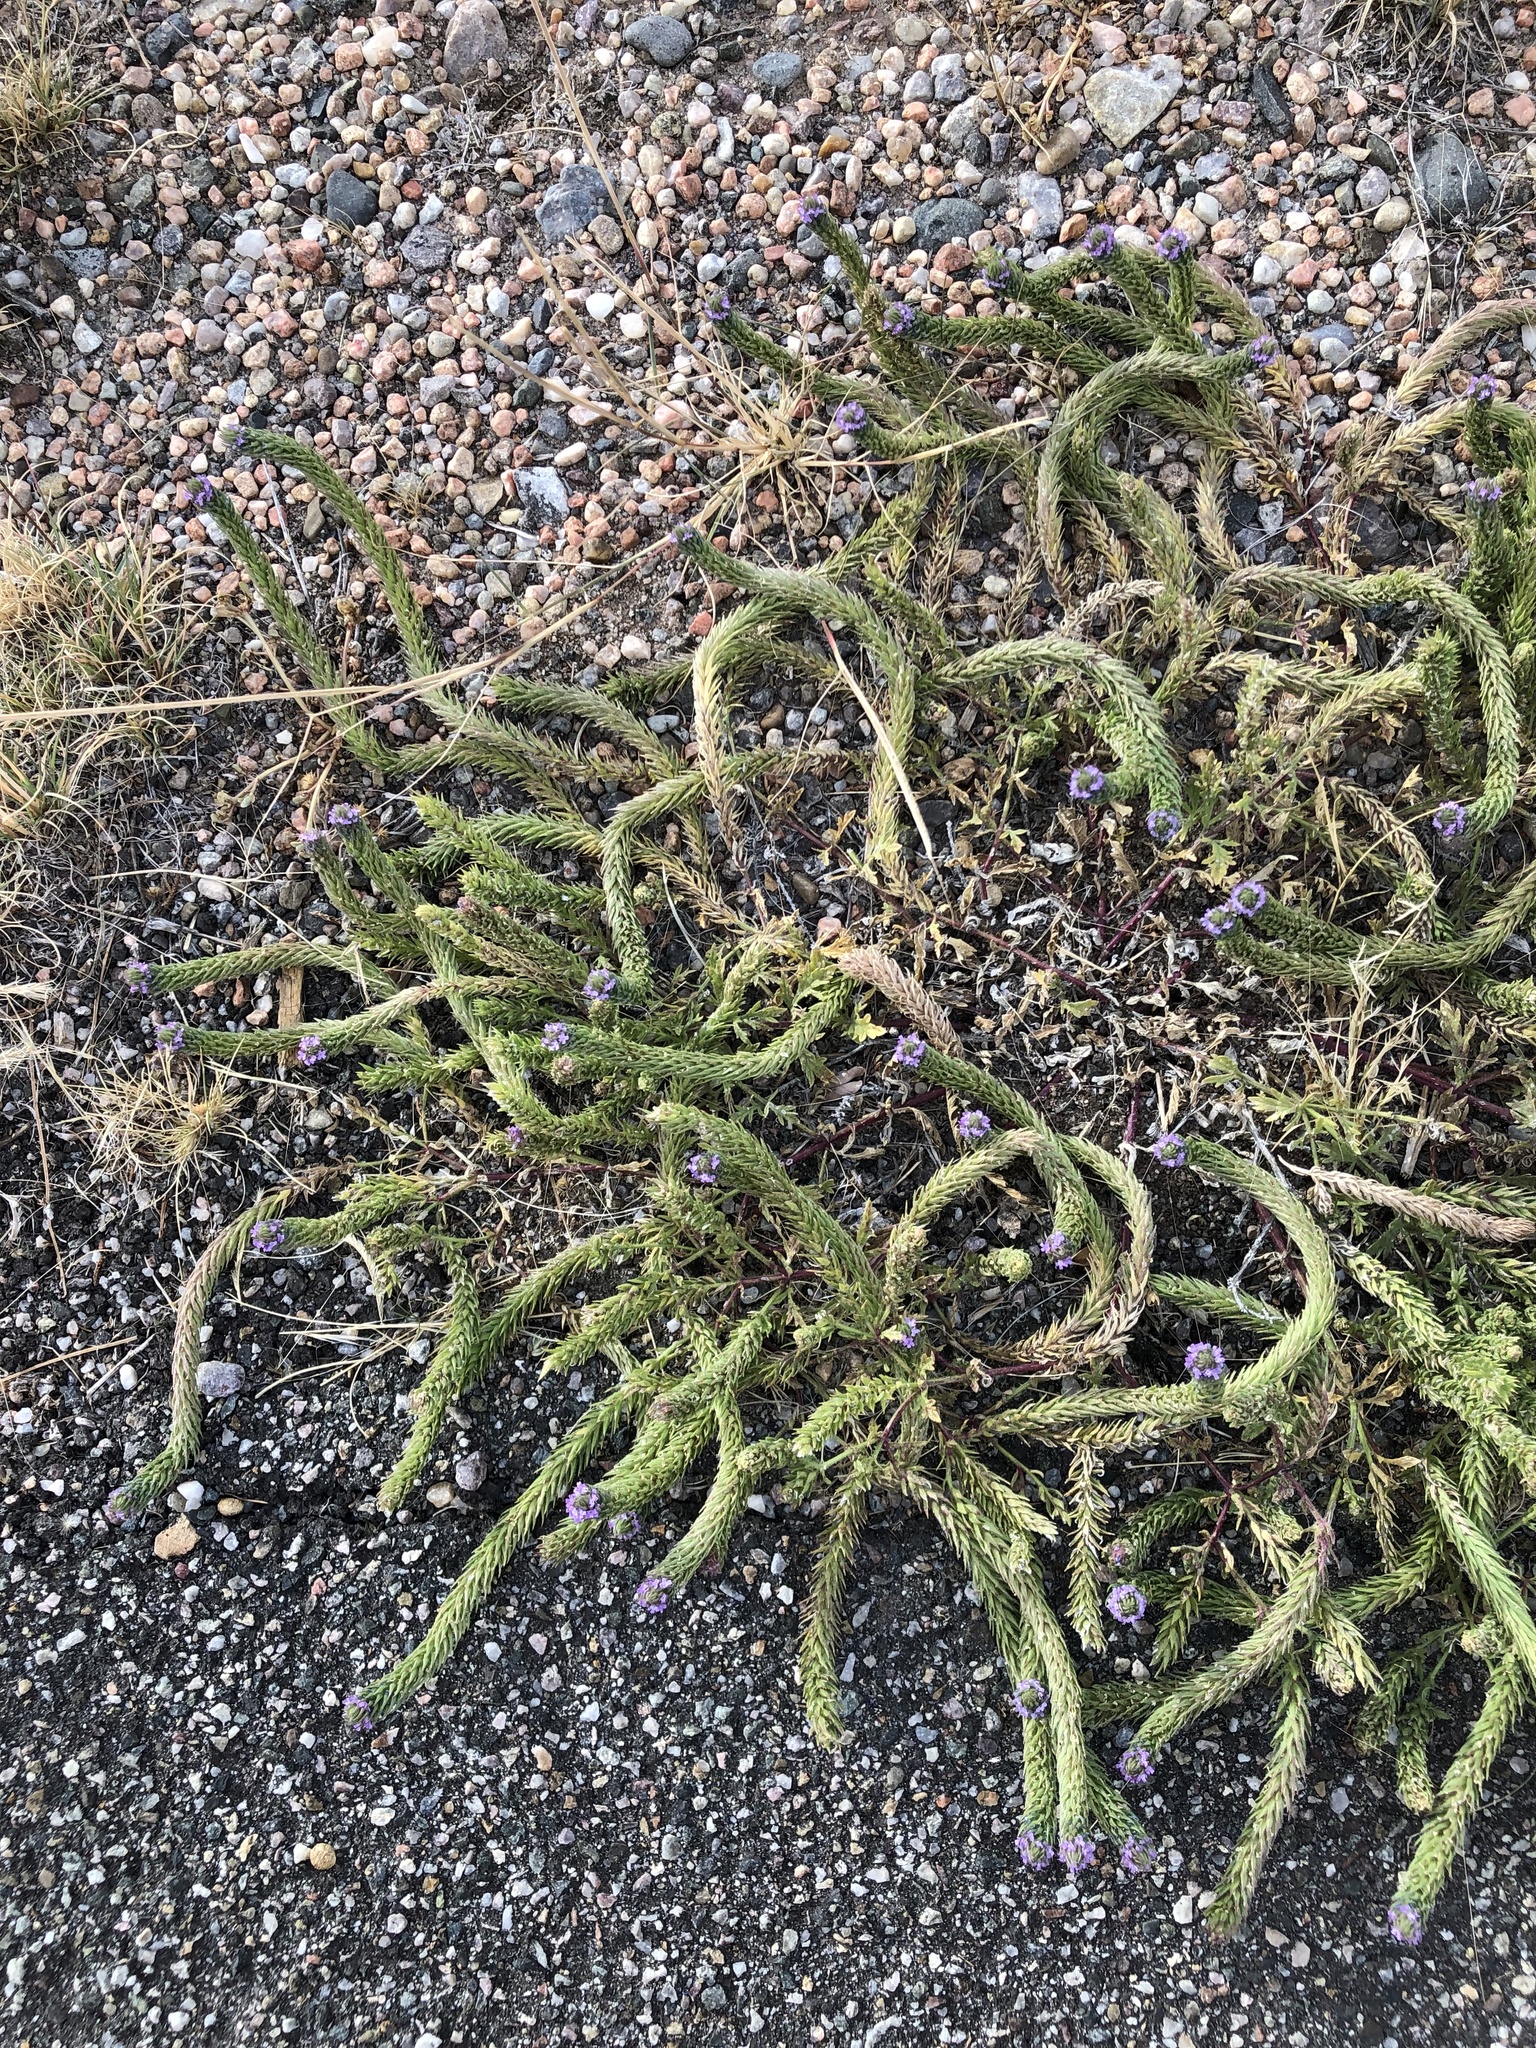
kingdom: Plantae
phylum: Tracheophyta
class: Magnoliopsida
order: Lamiales
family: Verbenaceae
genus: Verbena
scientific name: Verbena bracteata
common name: Bracted vervain
